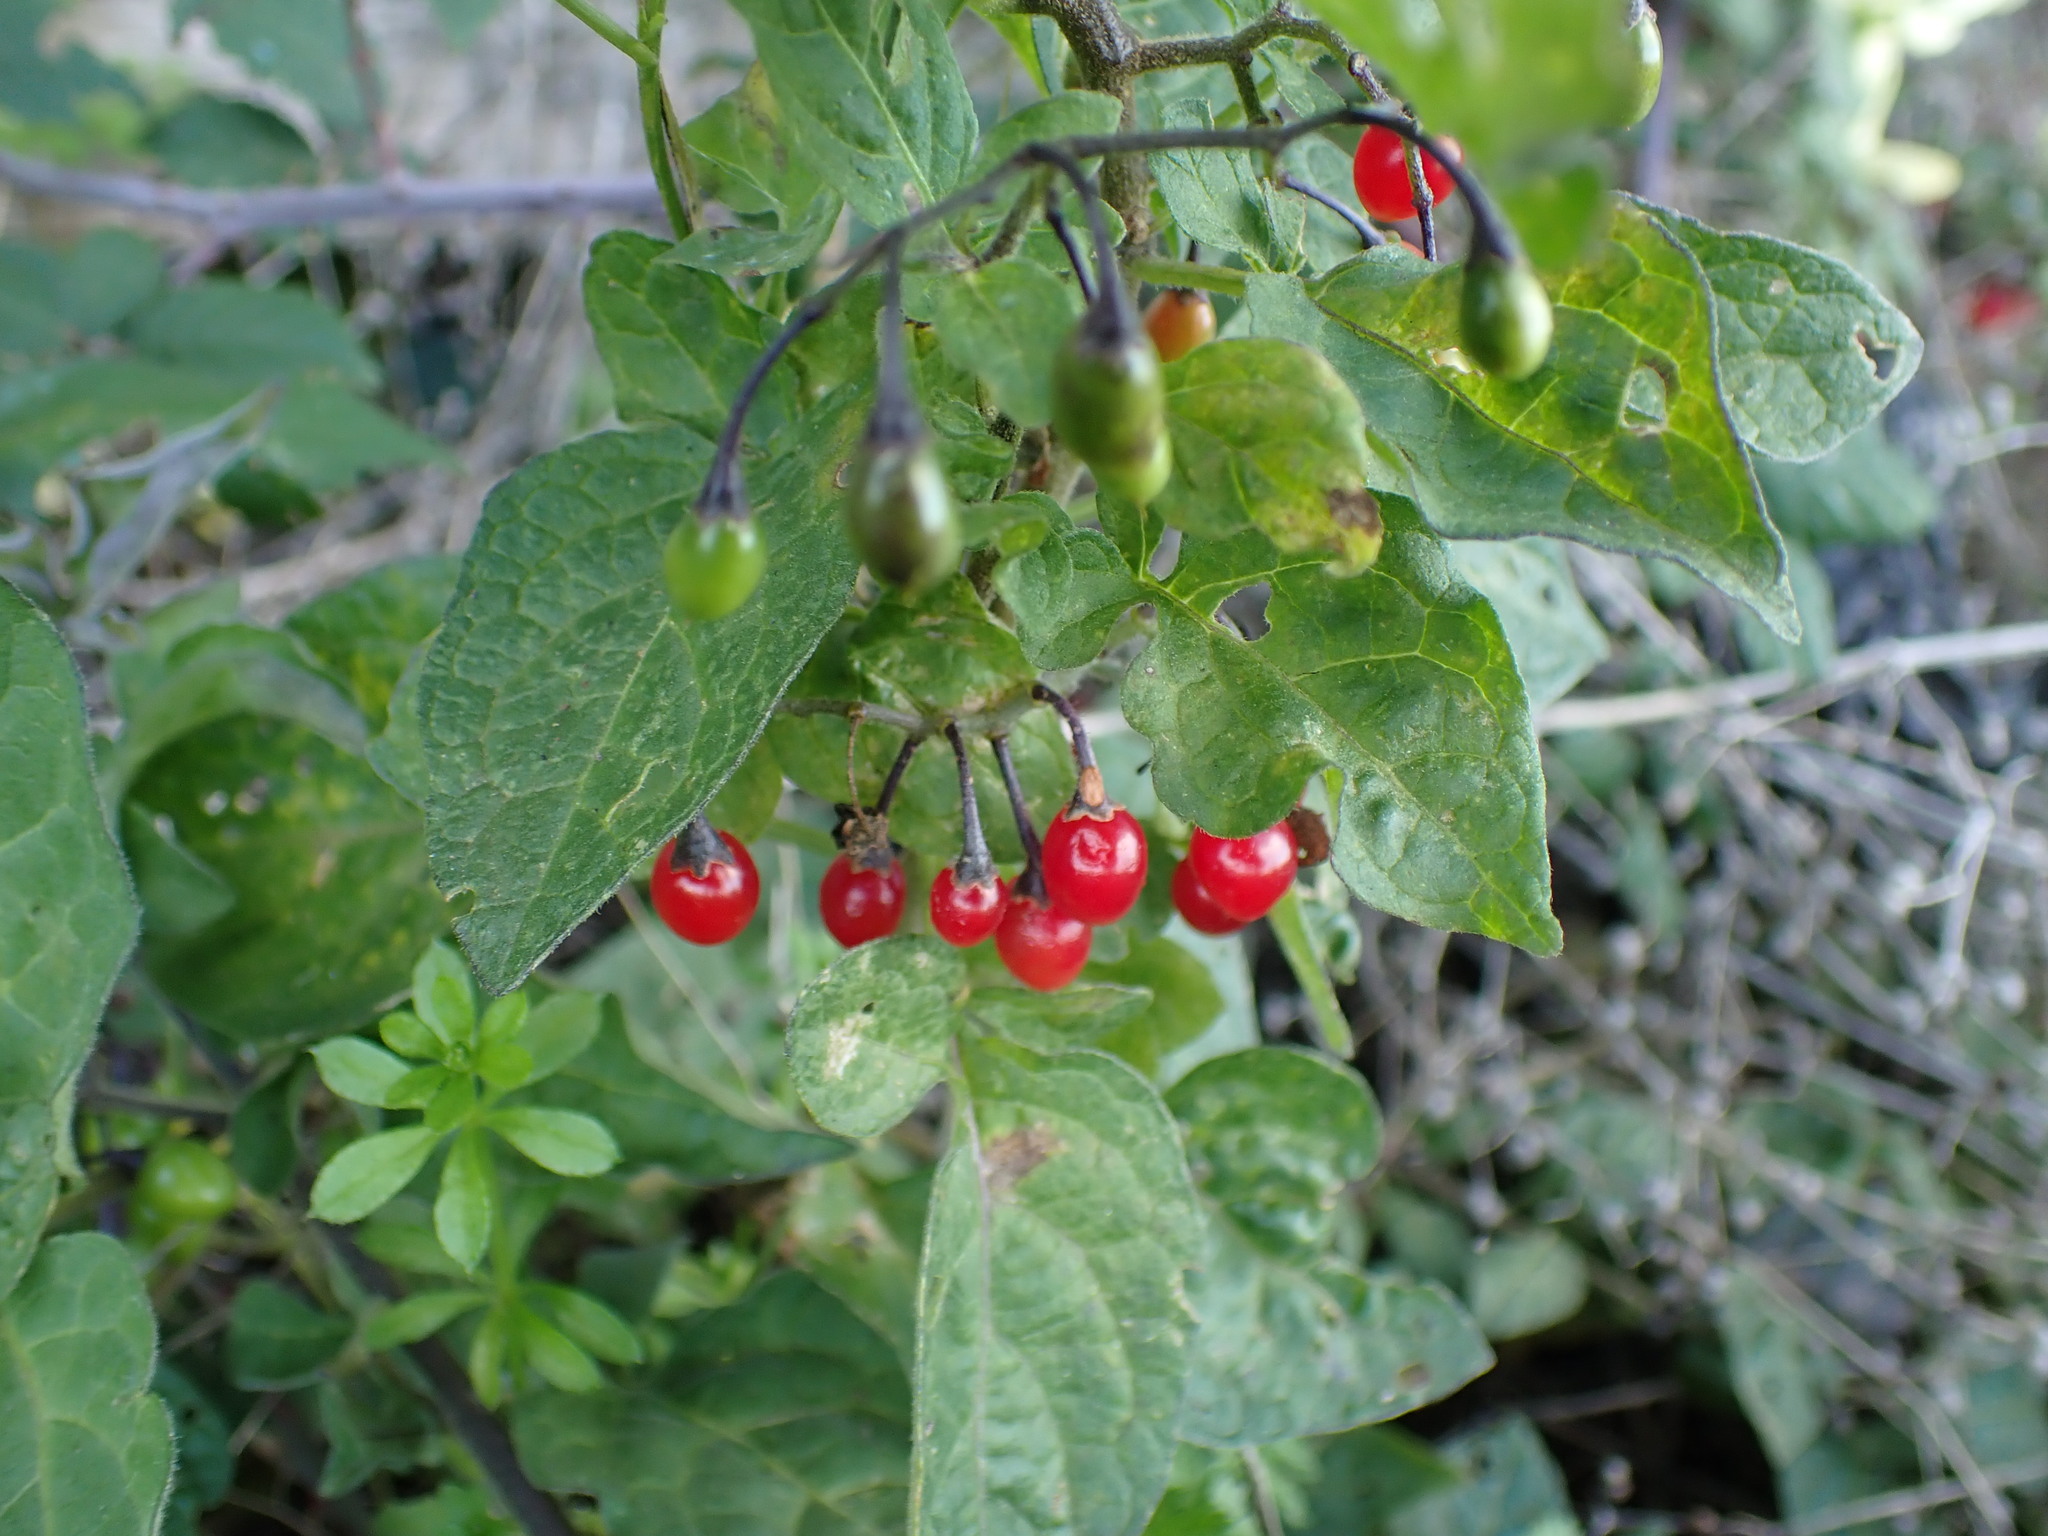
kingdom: Plantae
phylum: Tracheophyta
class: Magnoliopsida
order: Solanales
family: Solanaceae
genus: Solanum
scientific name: Solanum dulcamara
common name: Climbing nightshade
